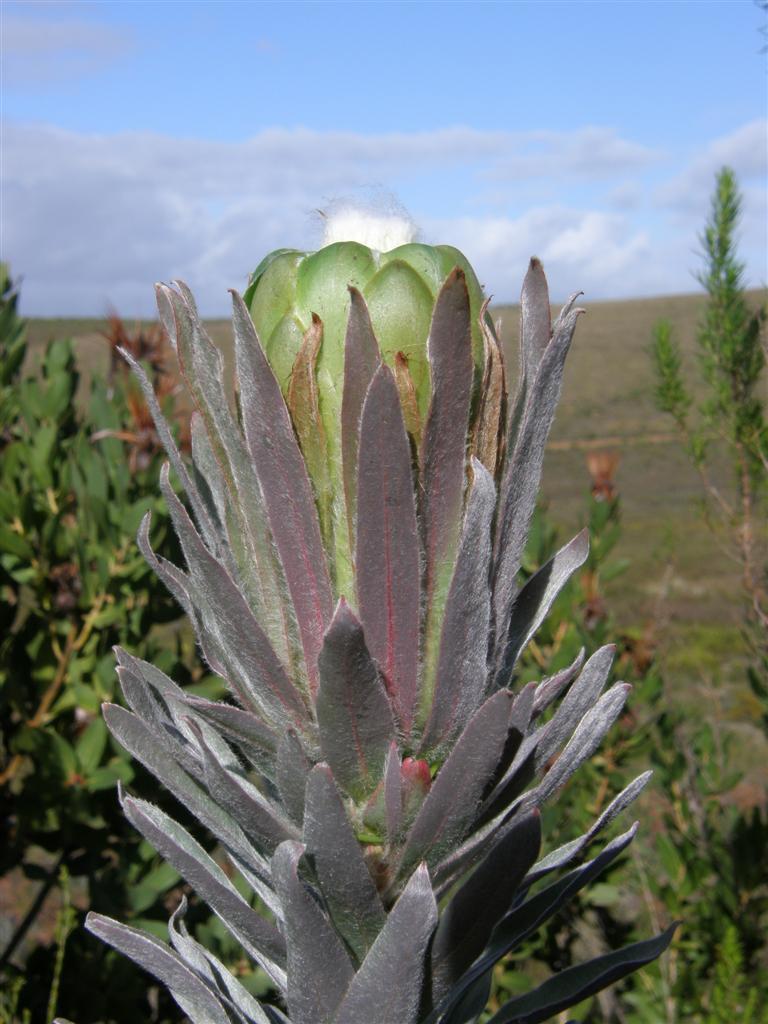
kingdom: Plantae
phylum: Tracheophyta
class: Magnoliopsida
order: Proteales
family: Proteaceae
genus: Protea
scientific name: Protea coronata
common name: Green sugarbush
